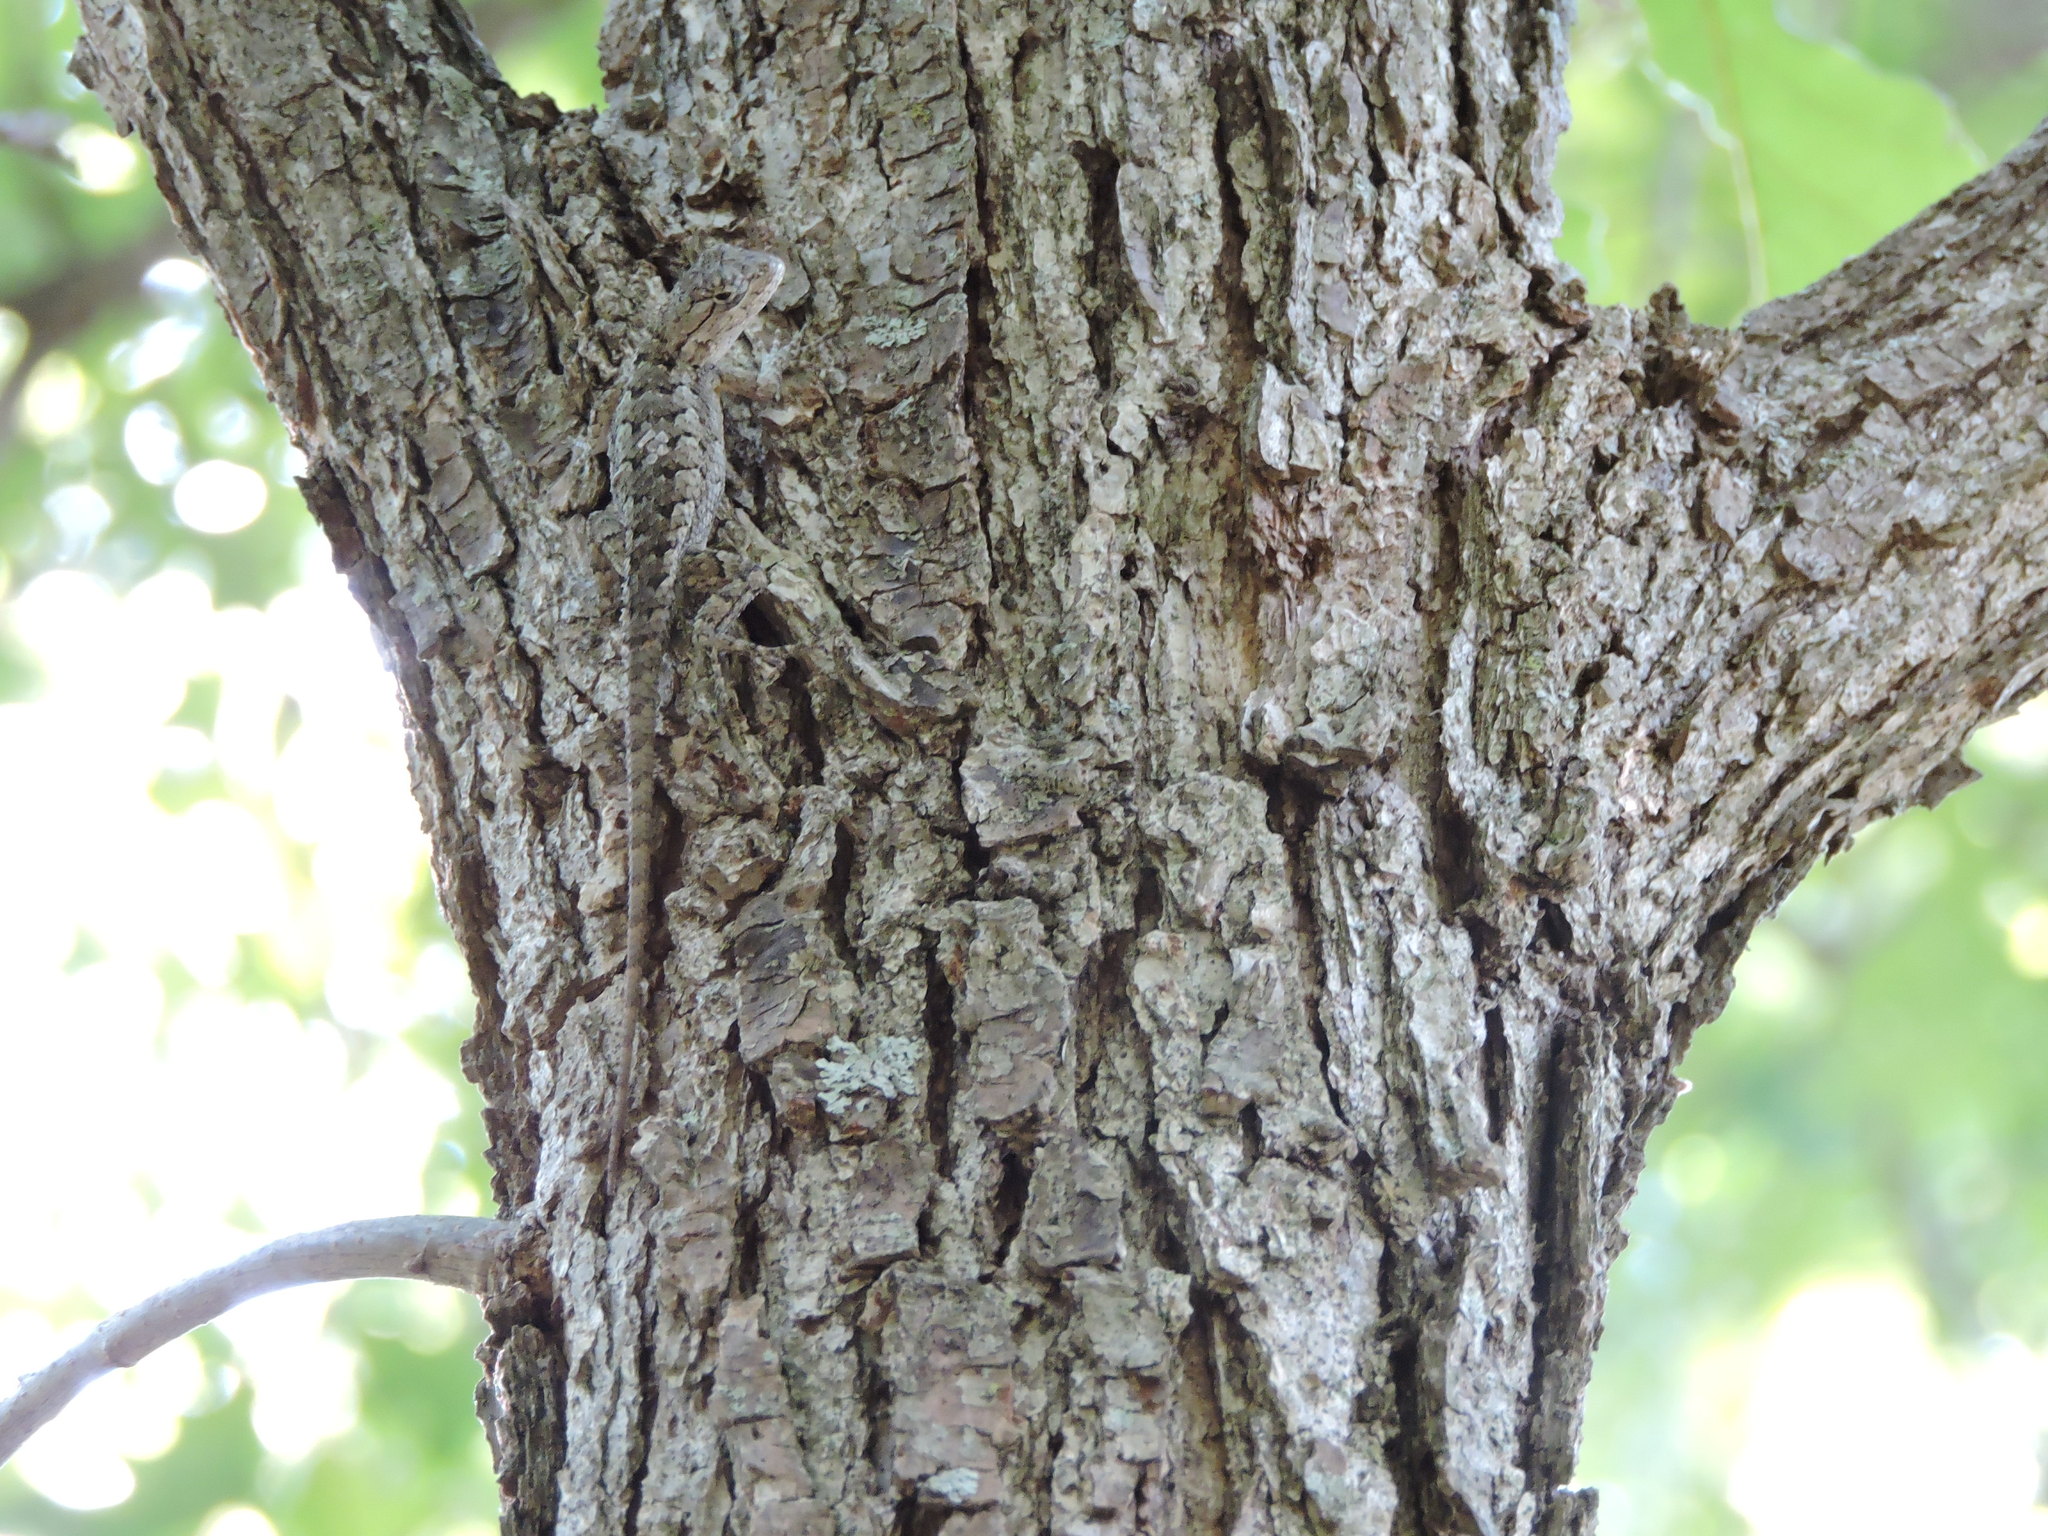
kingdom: Animalia
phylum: Chordata
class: Squamata
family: Phrynosomatidae
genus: Sceloporus
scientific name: Sceloporus olivaceus
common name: Texas spiny lizard
